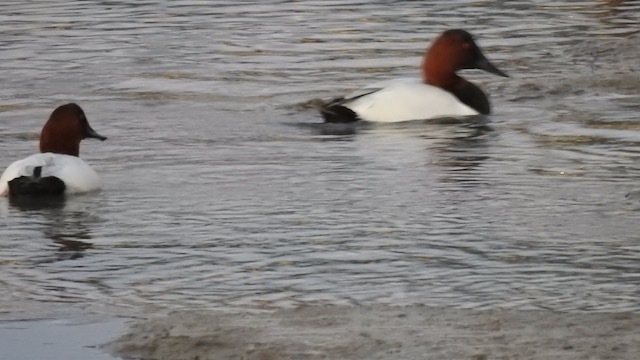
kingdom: Animalia
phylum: Chordata
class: Aves
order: Anseriformes
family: Anatidae
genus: Aythya
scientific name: Aythya valisineria
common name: Canvasback
